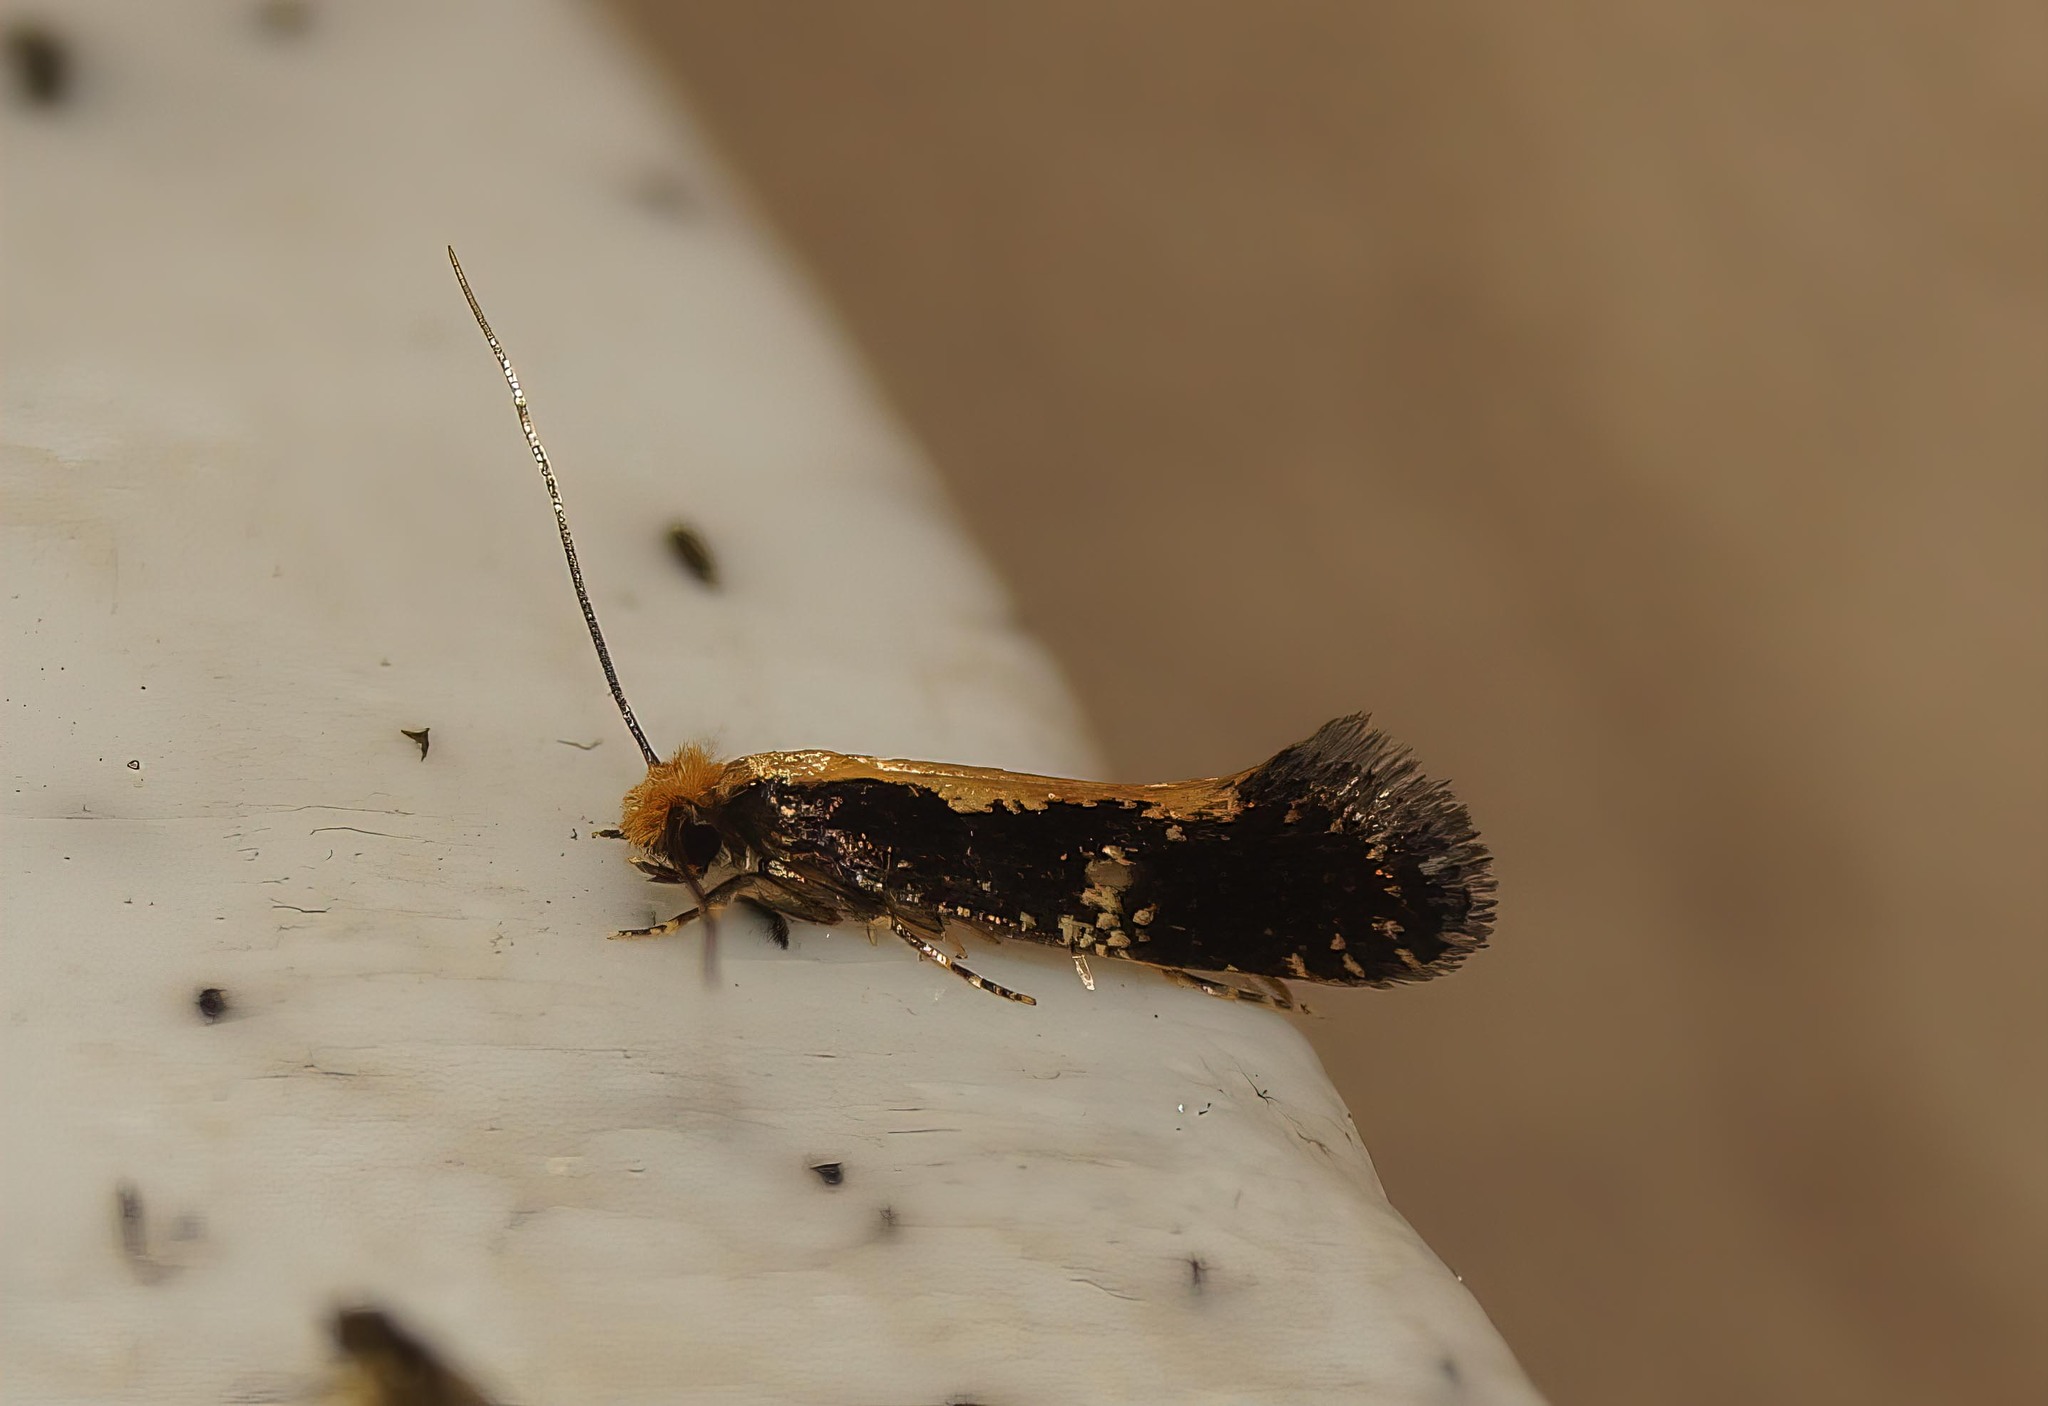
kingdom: Animalia
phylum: Arthropoda
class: Insecta
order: Lepidoptera
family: Tineidae
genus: Monopis
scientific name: Monopis obviella
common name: Tineid moth
